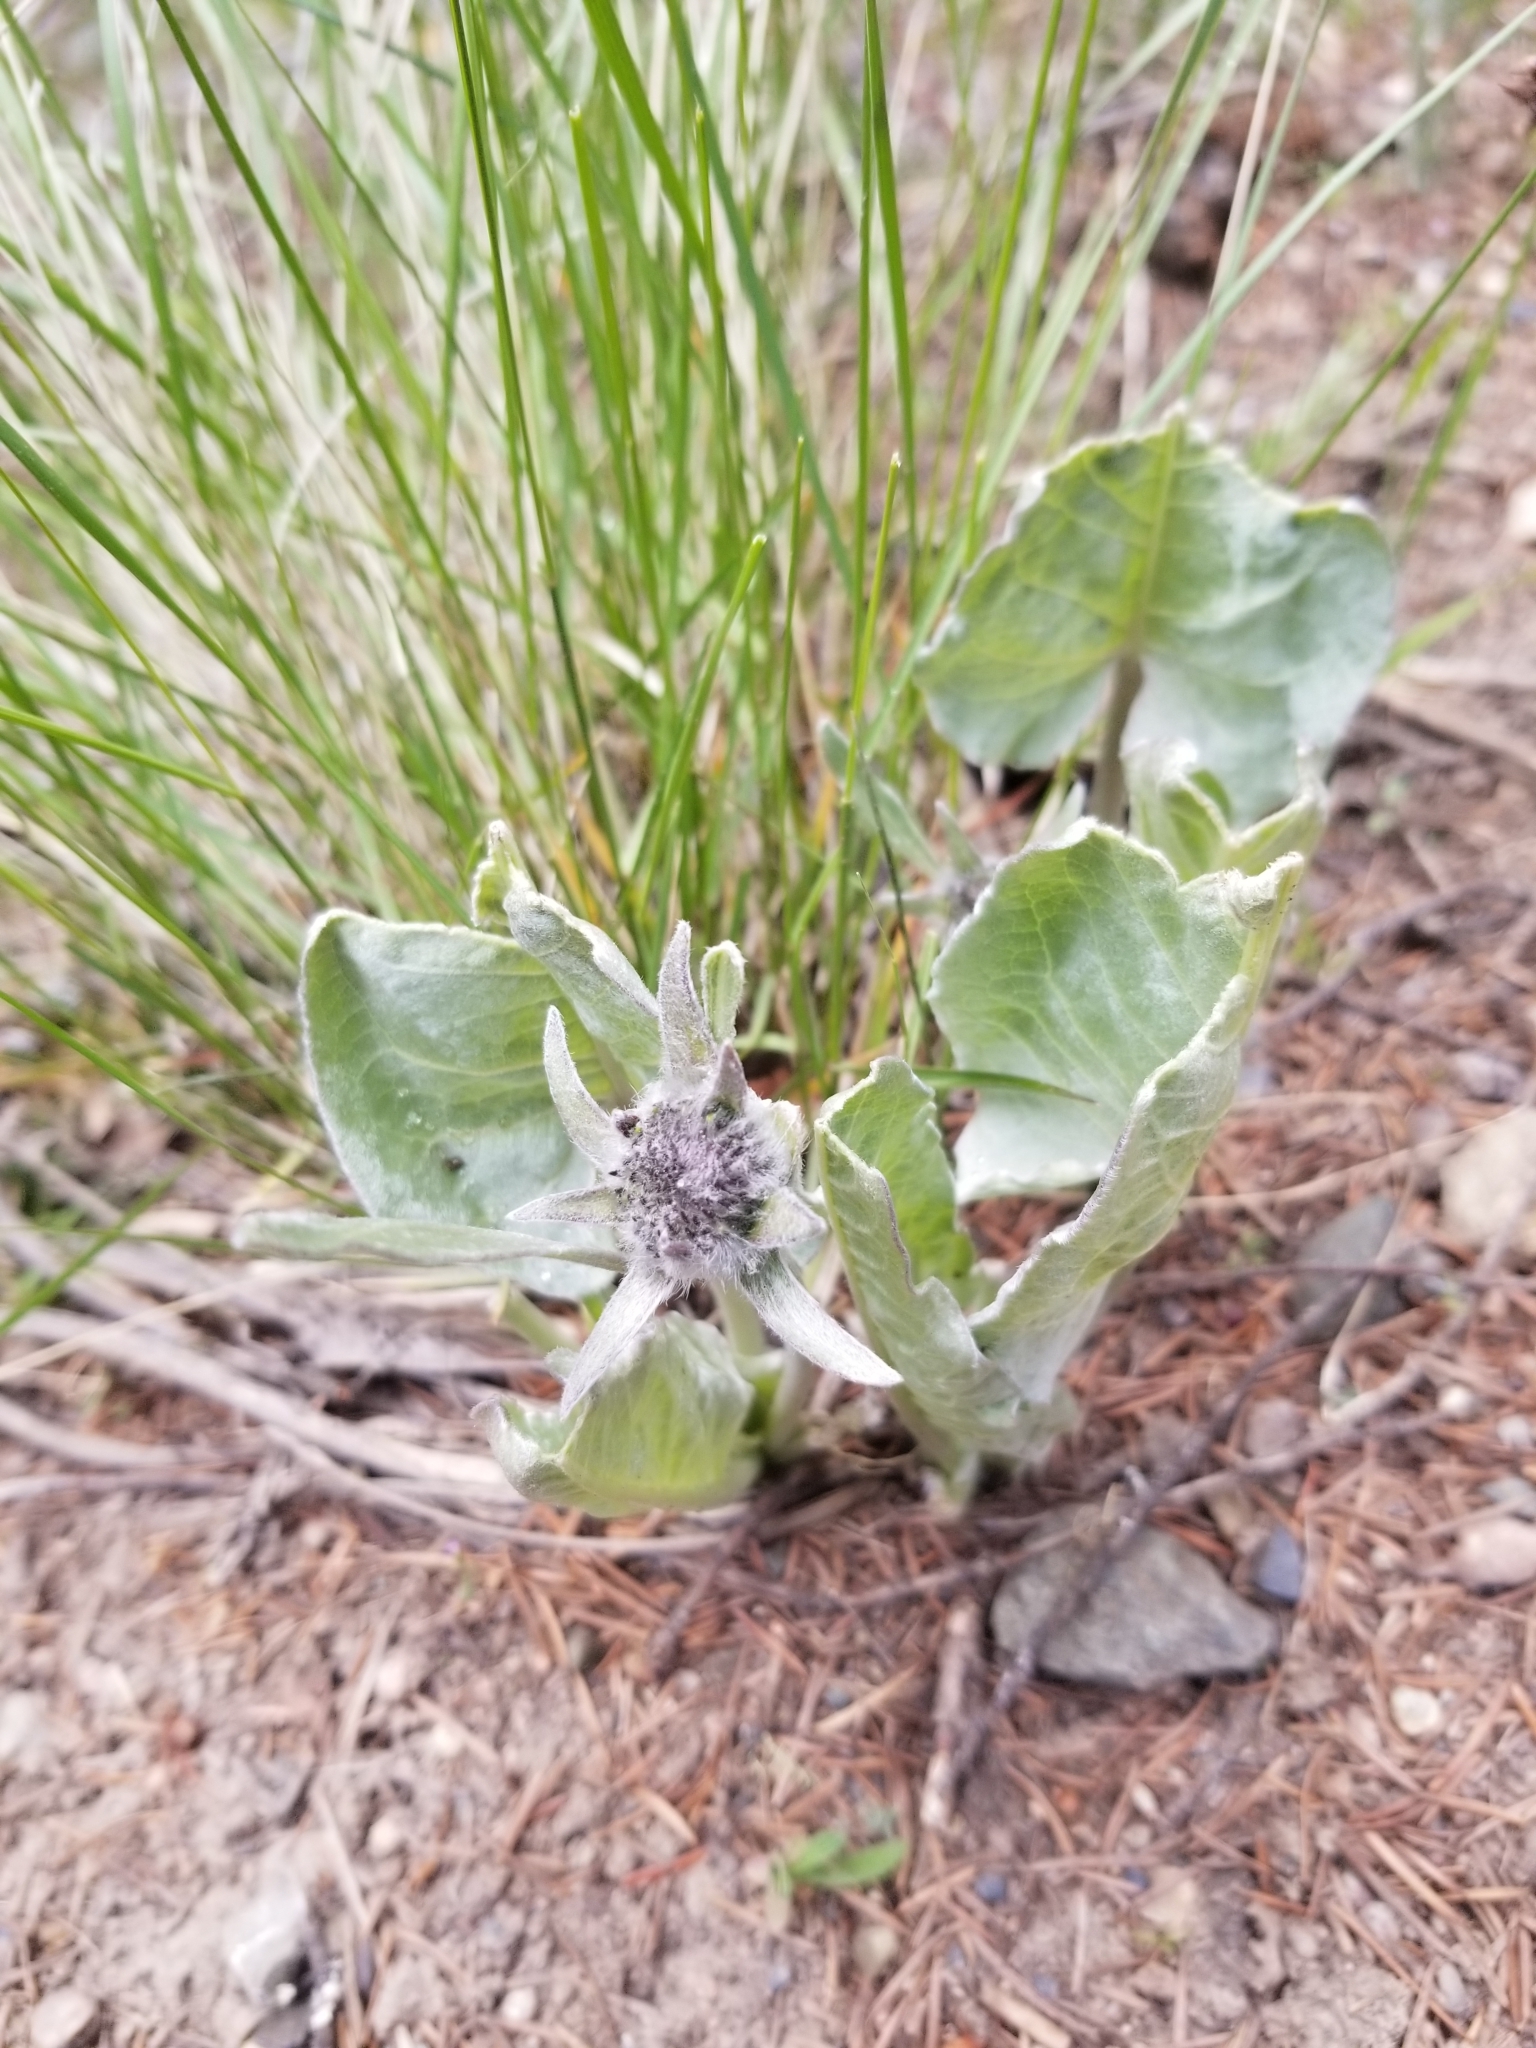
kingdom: Plantae
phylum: Tracheophyta
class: Magnoliopsida
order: Asterales
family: Asteraceae
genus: Wyethia
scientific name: Wyethia sagittata
